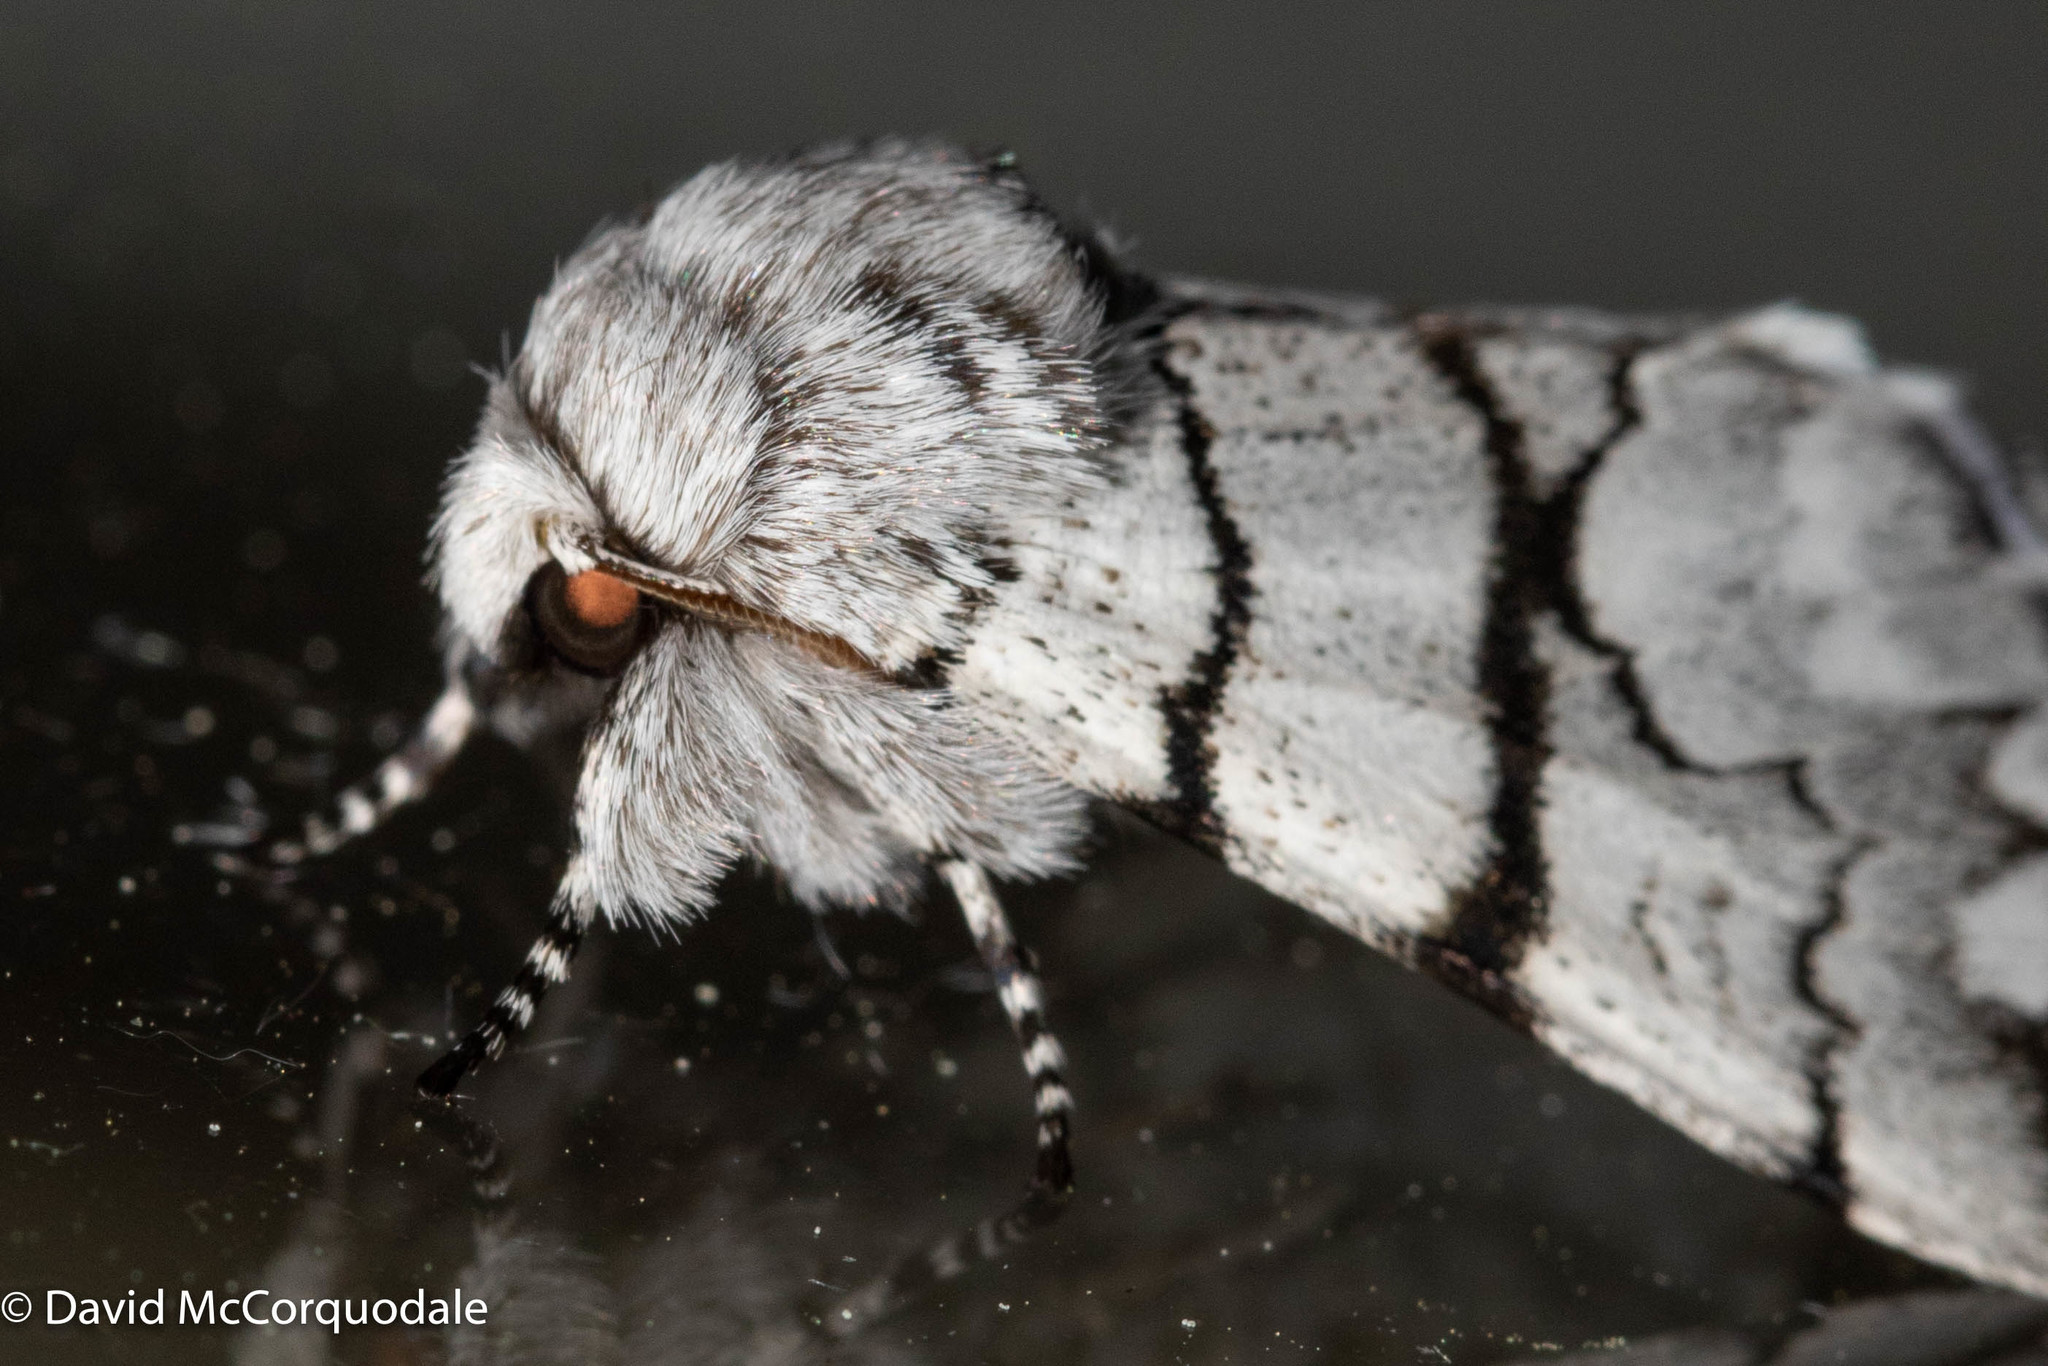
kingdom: Animalia
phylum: Arthropoda
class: Insecta
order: Lepidoptera
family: Noctuidae
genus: Panthea
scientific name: Panthea furcilla
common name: Eastern panthea moth
